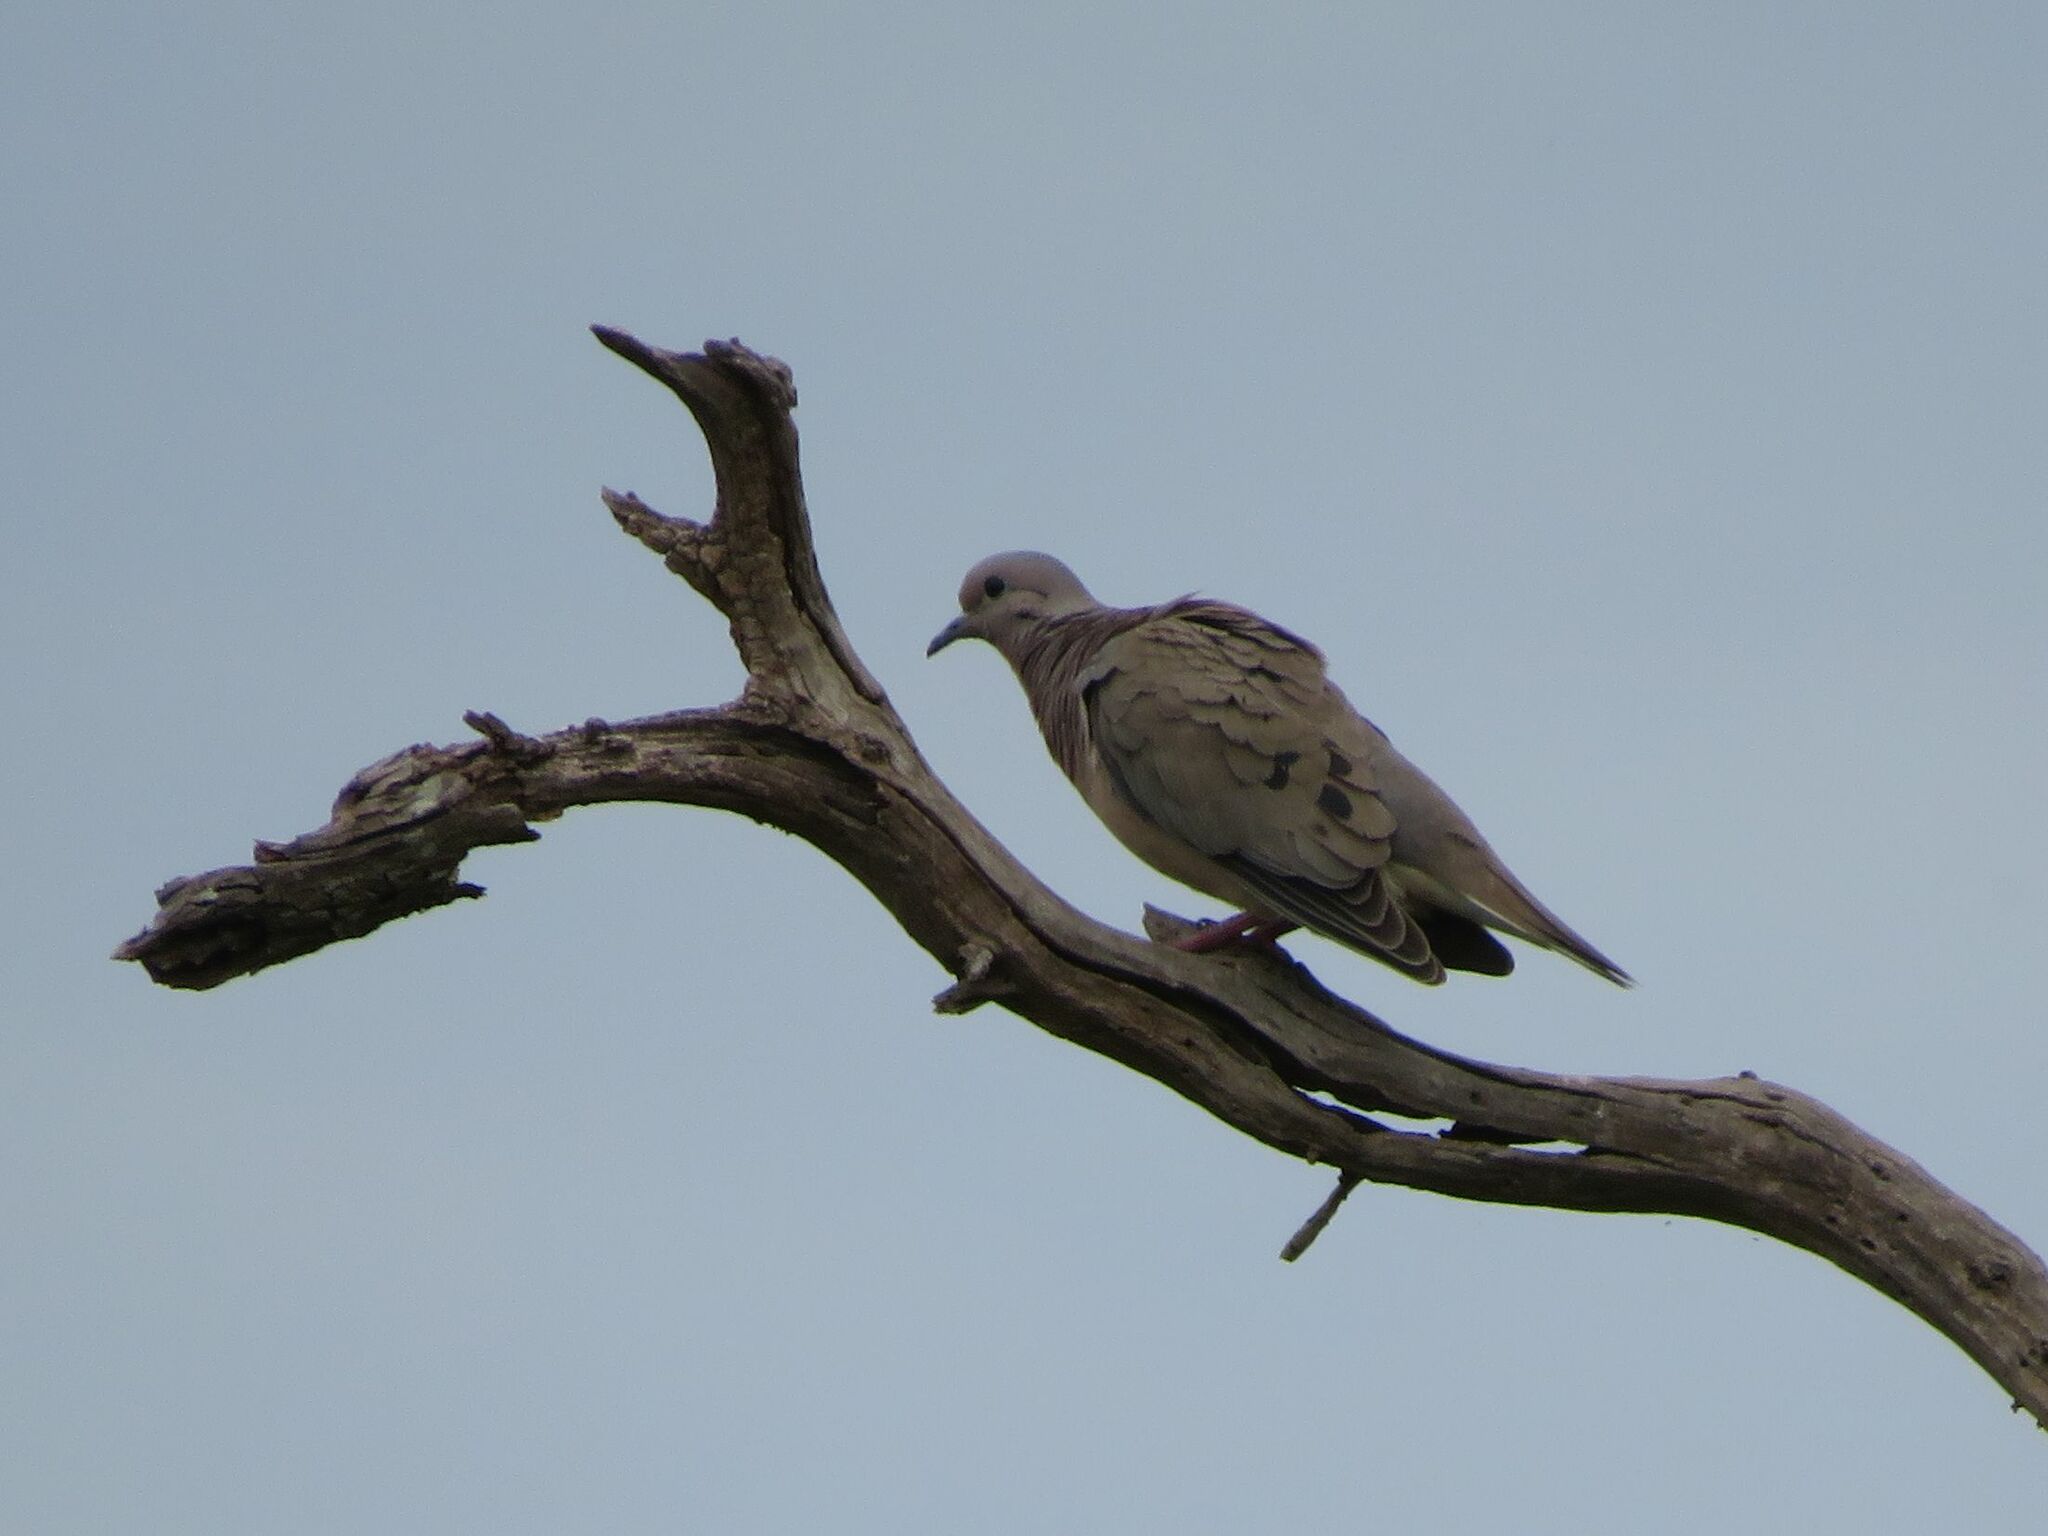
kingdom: Animalia
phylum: Chordata
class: Aves
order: Columbiformes
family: Columbidae
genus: Zenaida
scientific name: Zenaida auriculata
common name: Eared dove
